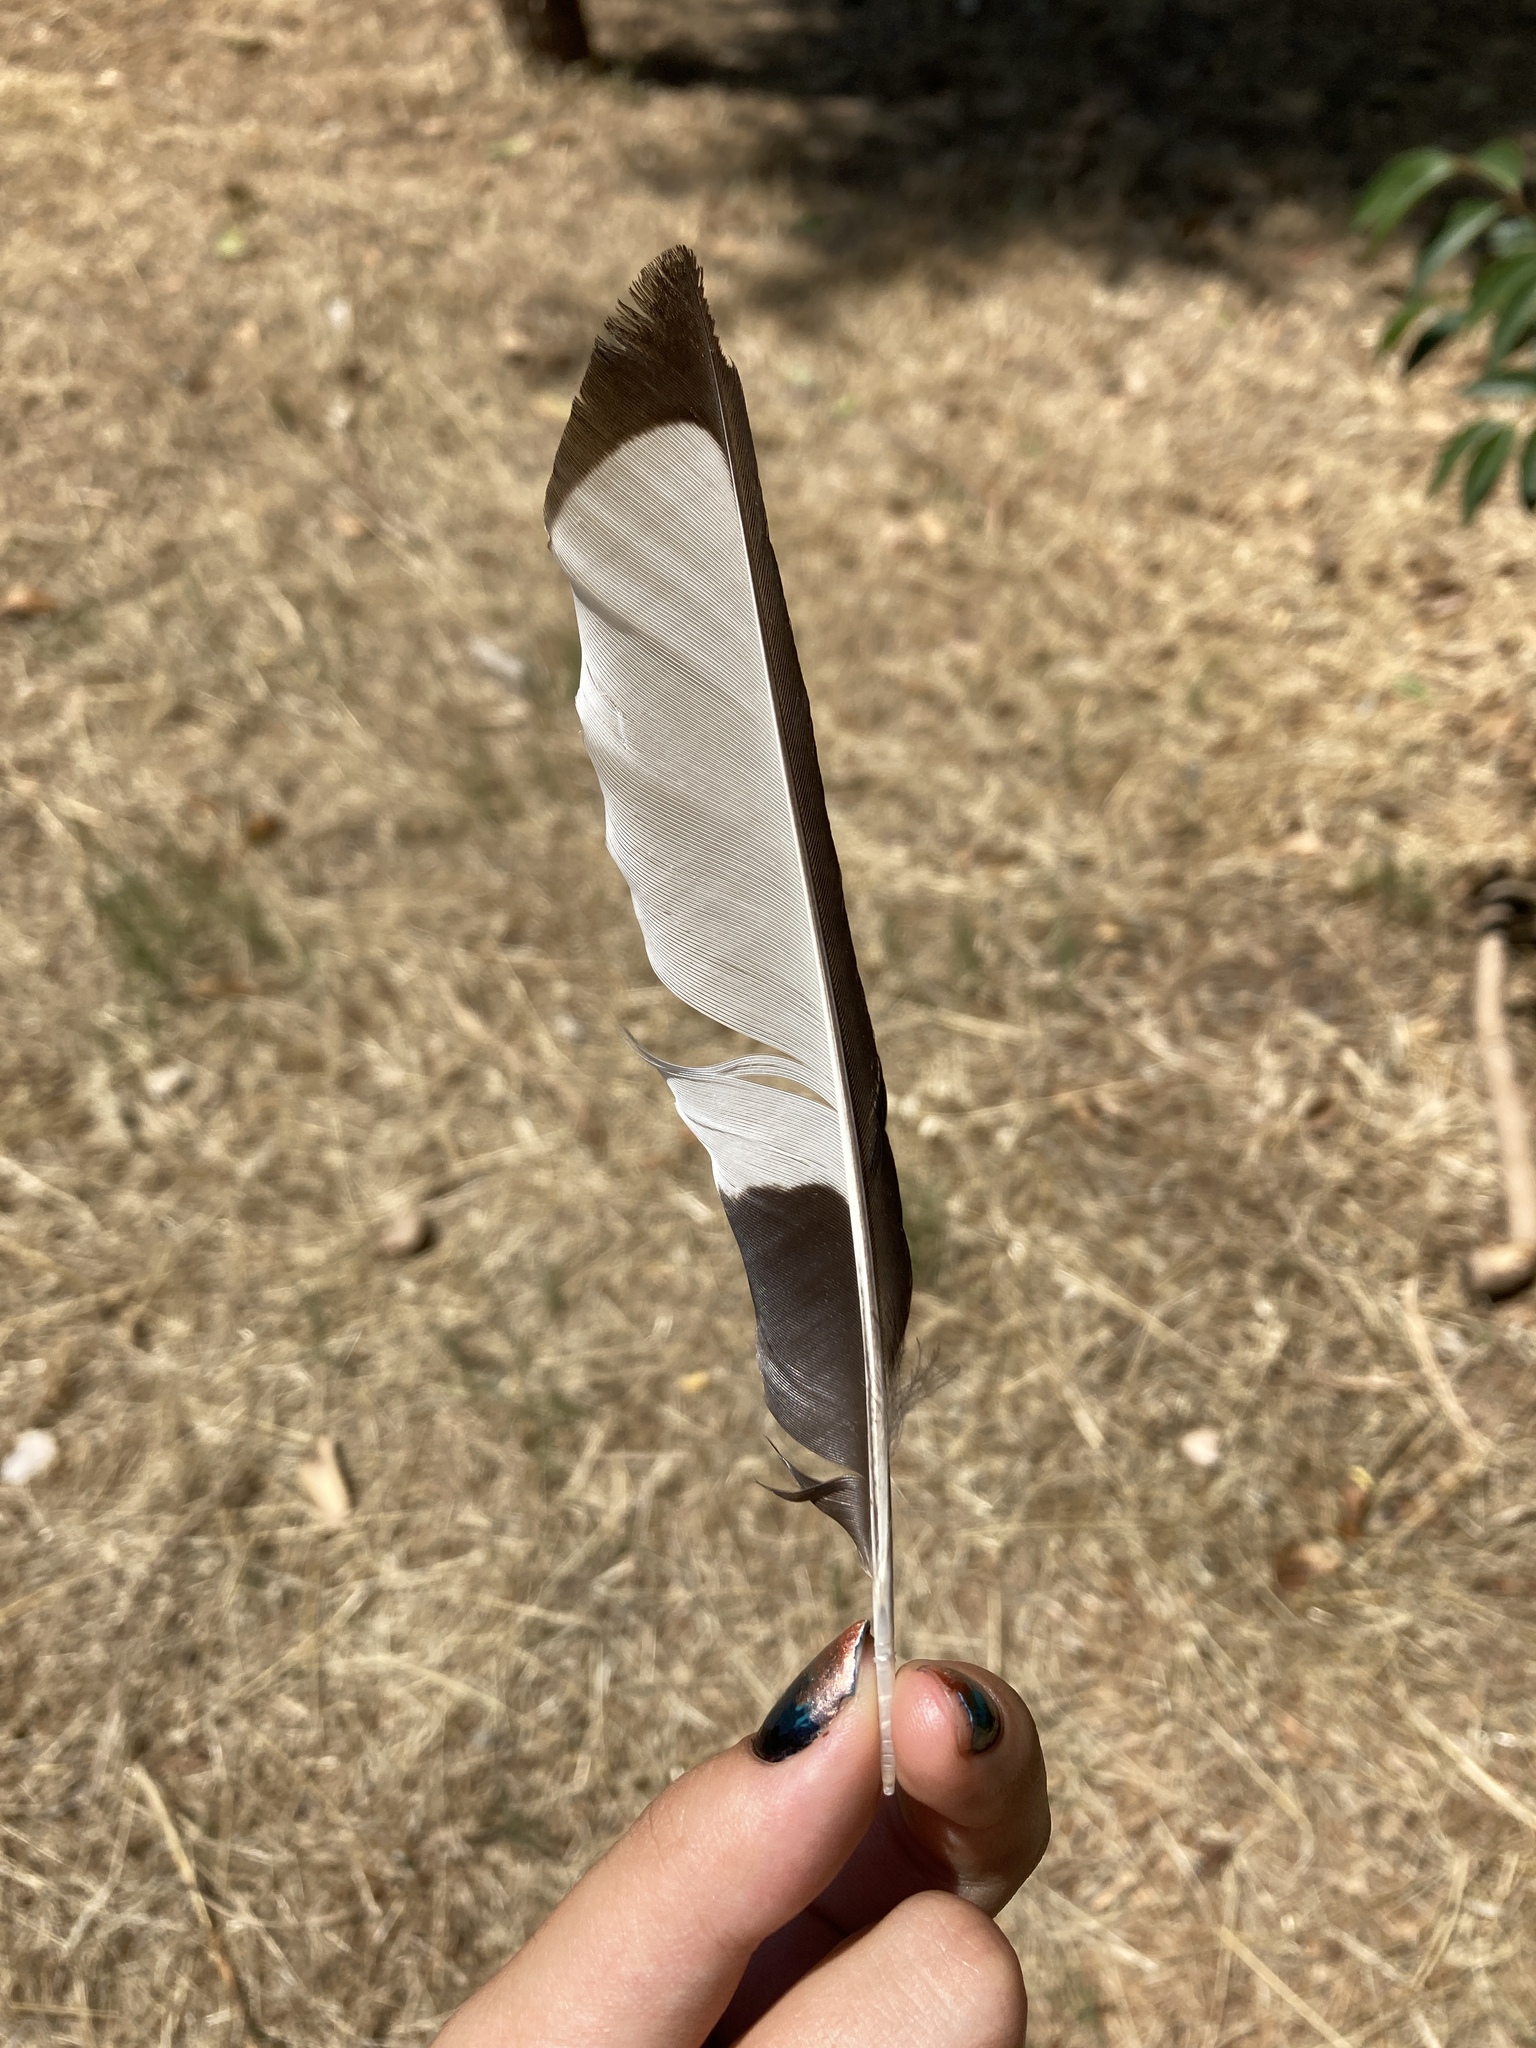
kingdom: Animalia
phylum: Chordata
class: Aves
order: Passeriformes
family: Corvidae
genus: Pica
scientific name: Pica pica
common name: Eurasian magpie
